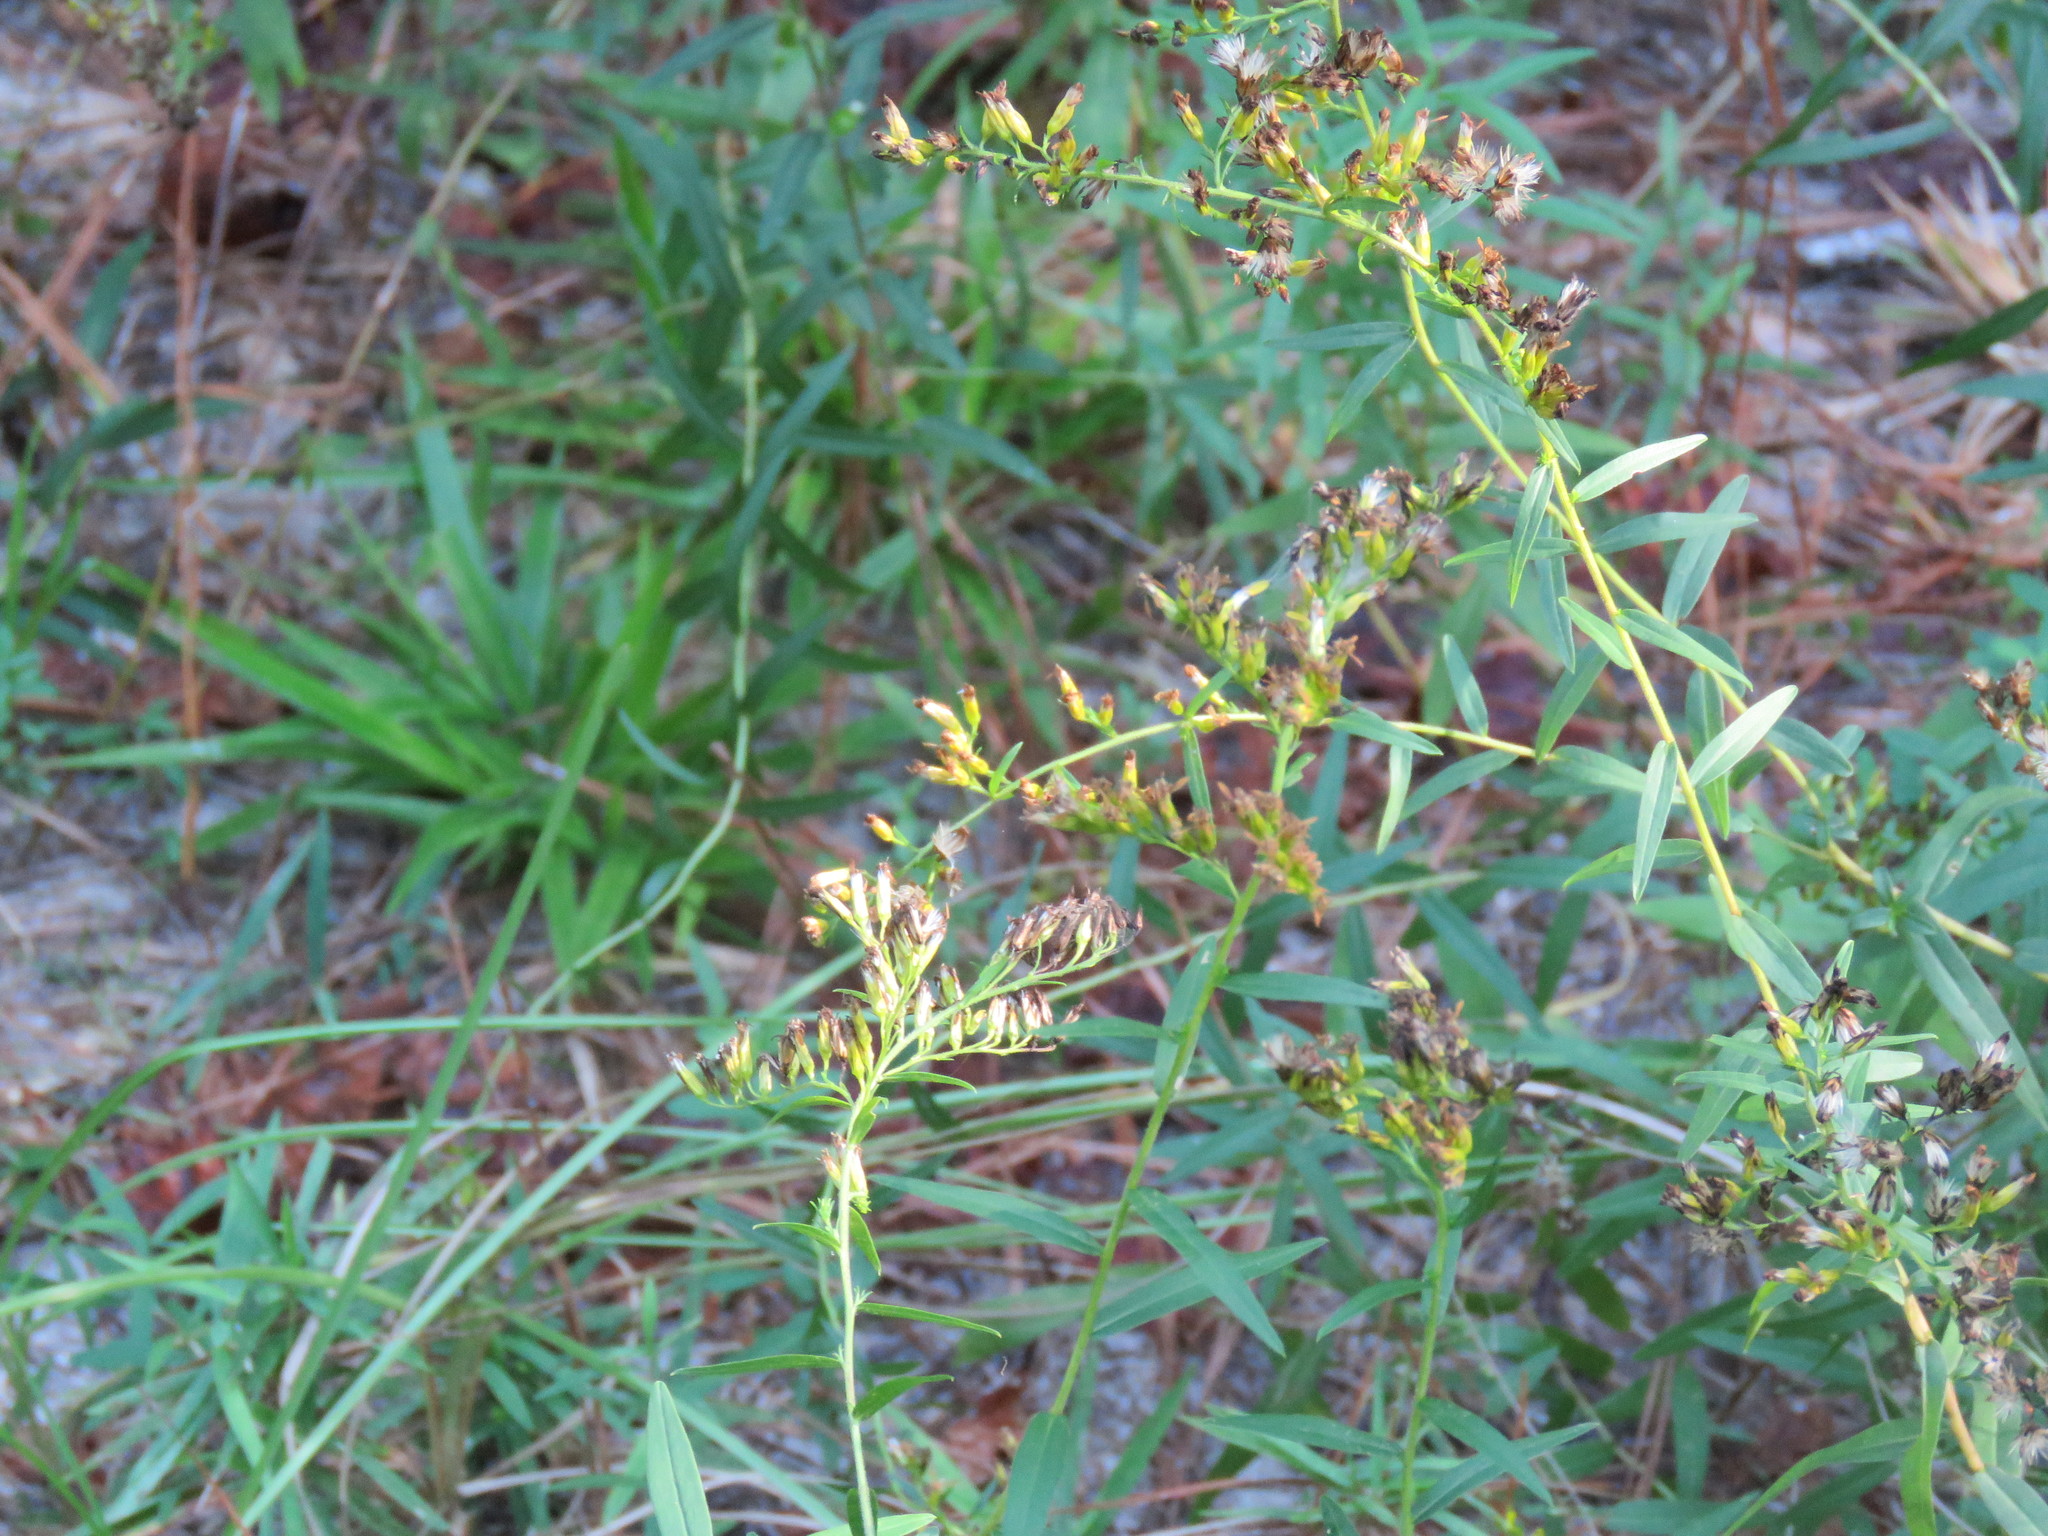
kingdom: Plantae
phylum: Tracheophyta
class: Magnoliopsida
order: Asterales
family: Asteraceae
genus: Solidago
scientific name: Solidago odora
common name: Anise-scented goldenrod
